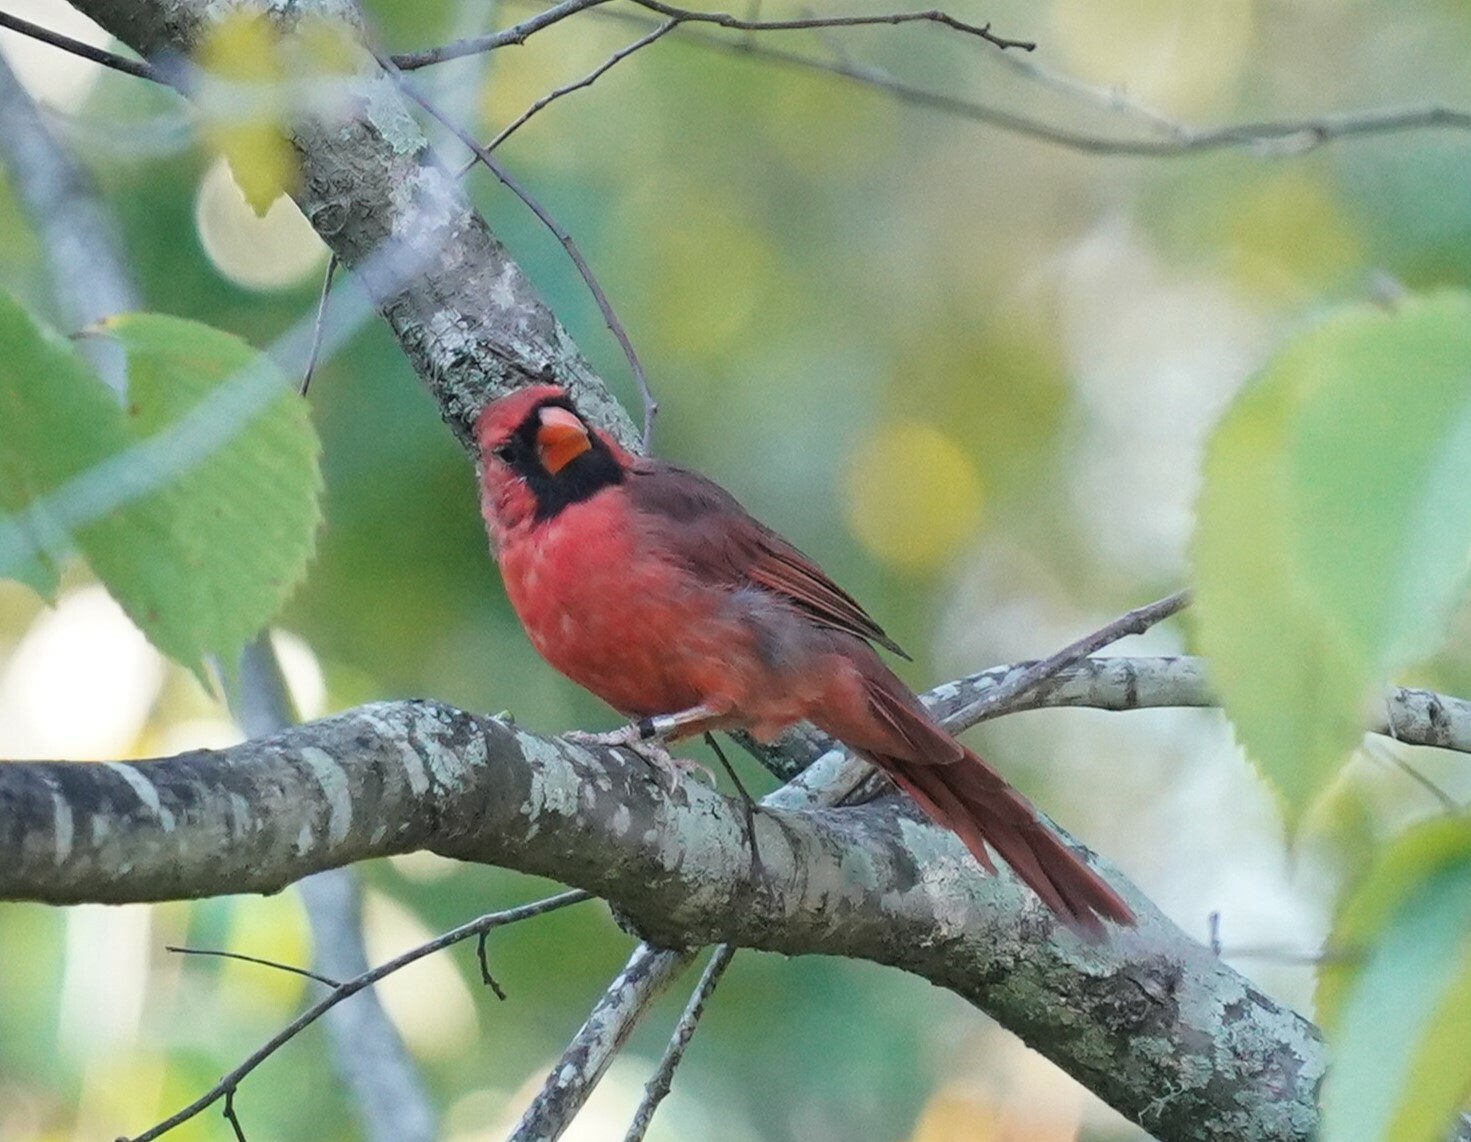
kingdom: Animalia
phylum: Chordata
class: Aves
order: Passeriformes
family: Cardinalidae
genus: Cardinalis
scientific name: Cardinalis cardinalis
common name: Northern cardinal
